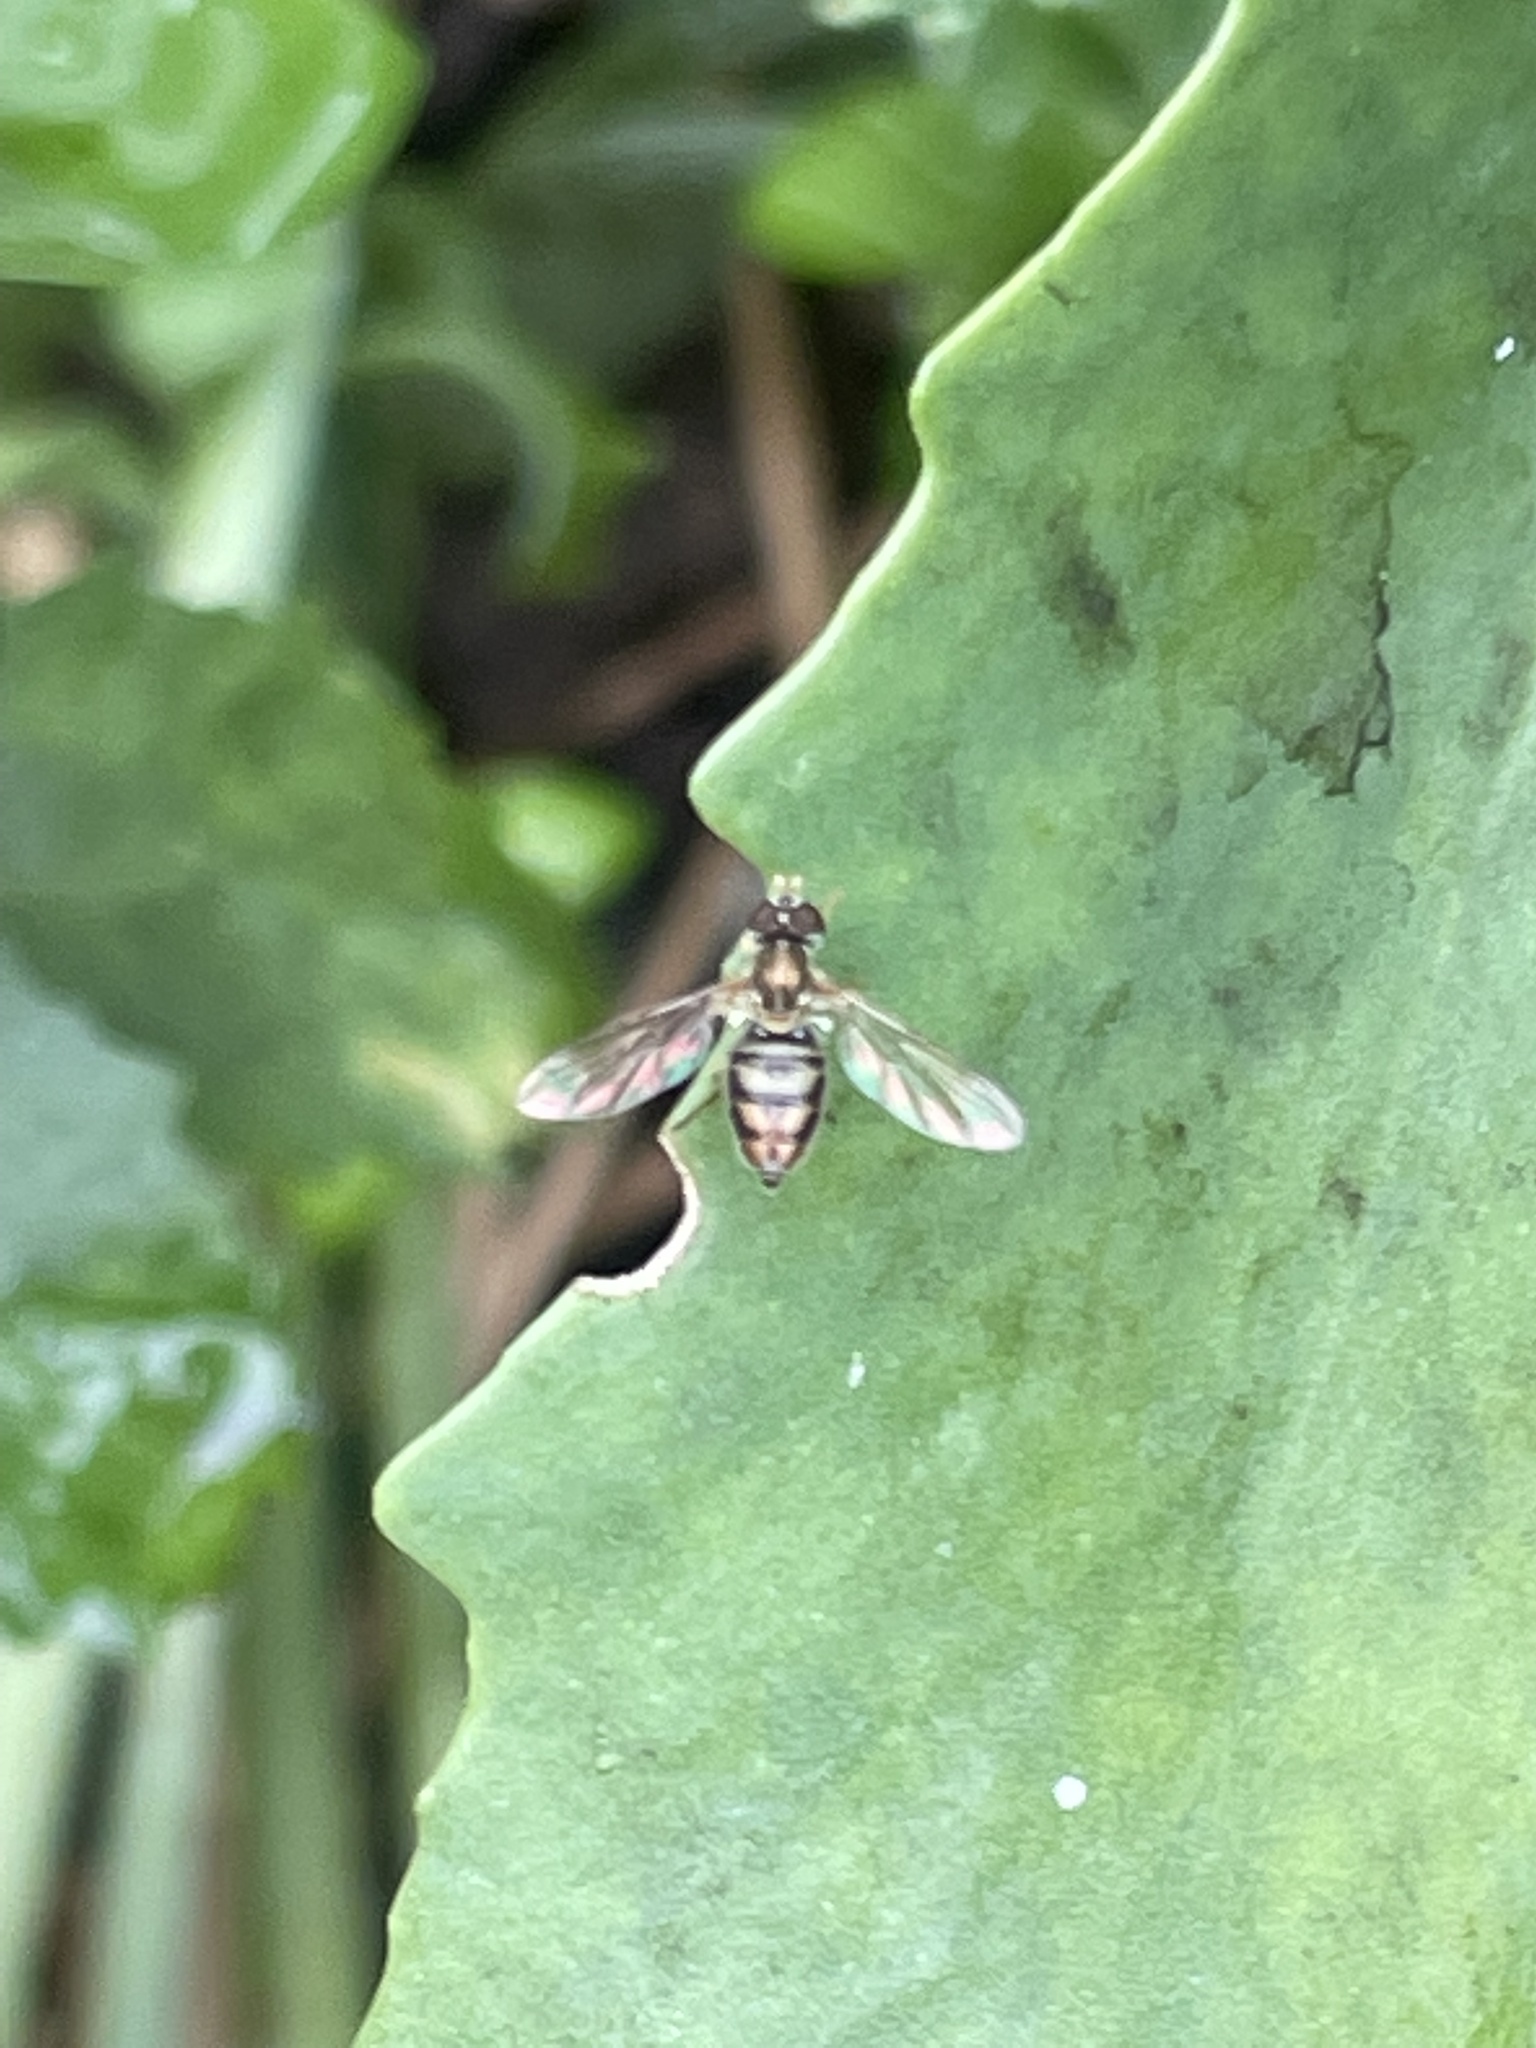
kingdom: Animalia
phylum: Arthropoda
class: Insecta
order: Diptera
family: Syrphidae
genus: Toxomerus
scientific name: Toxomerus marginatus
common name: Syrphid fly
